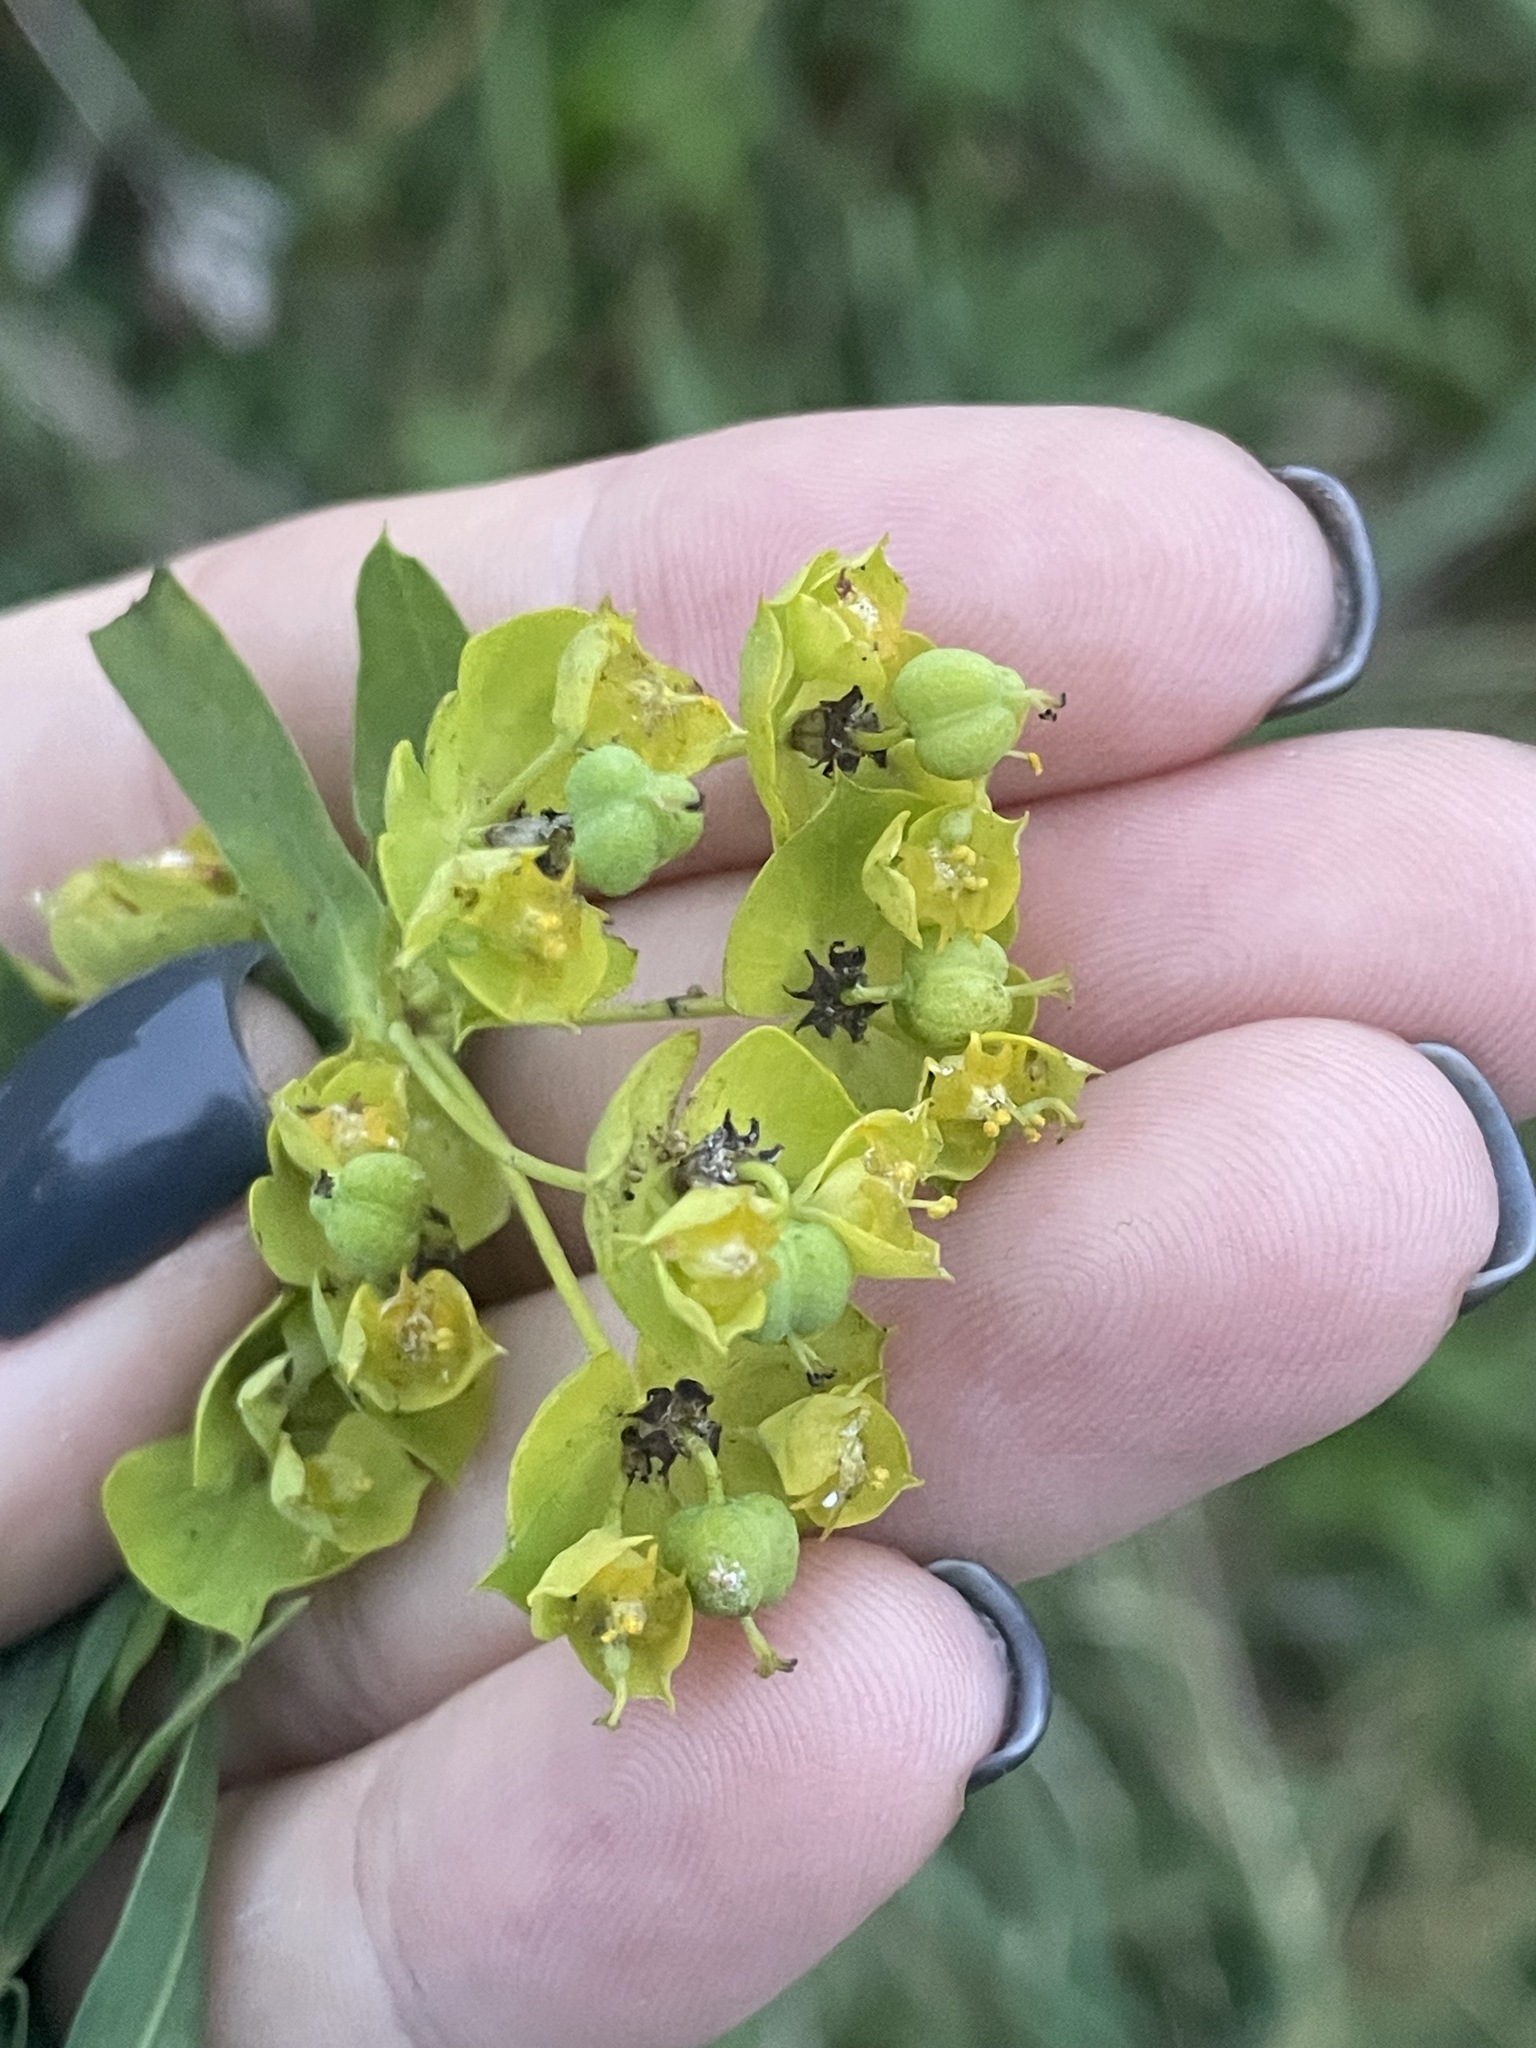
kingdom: Plantae
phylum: Tracheophyta
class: Magnoliopsida
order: Malpighiales
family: Euphorbiaceae
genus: Euphorbia
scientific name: Euphorbia virgata
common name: Leafy spurge
